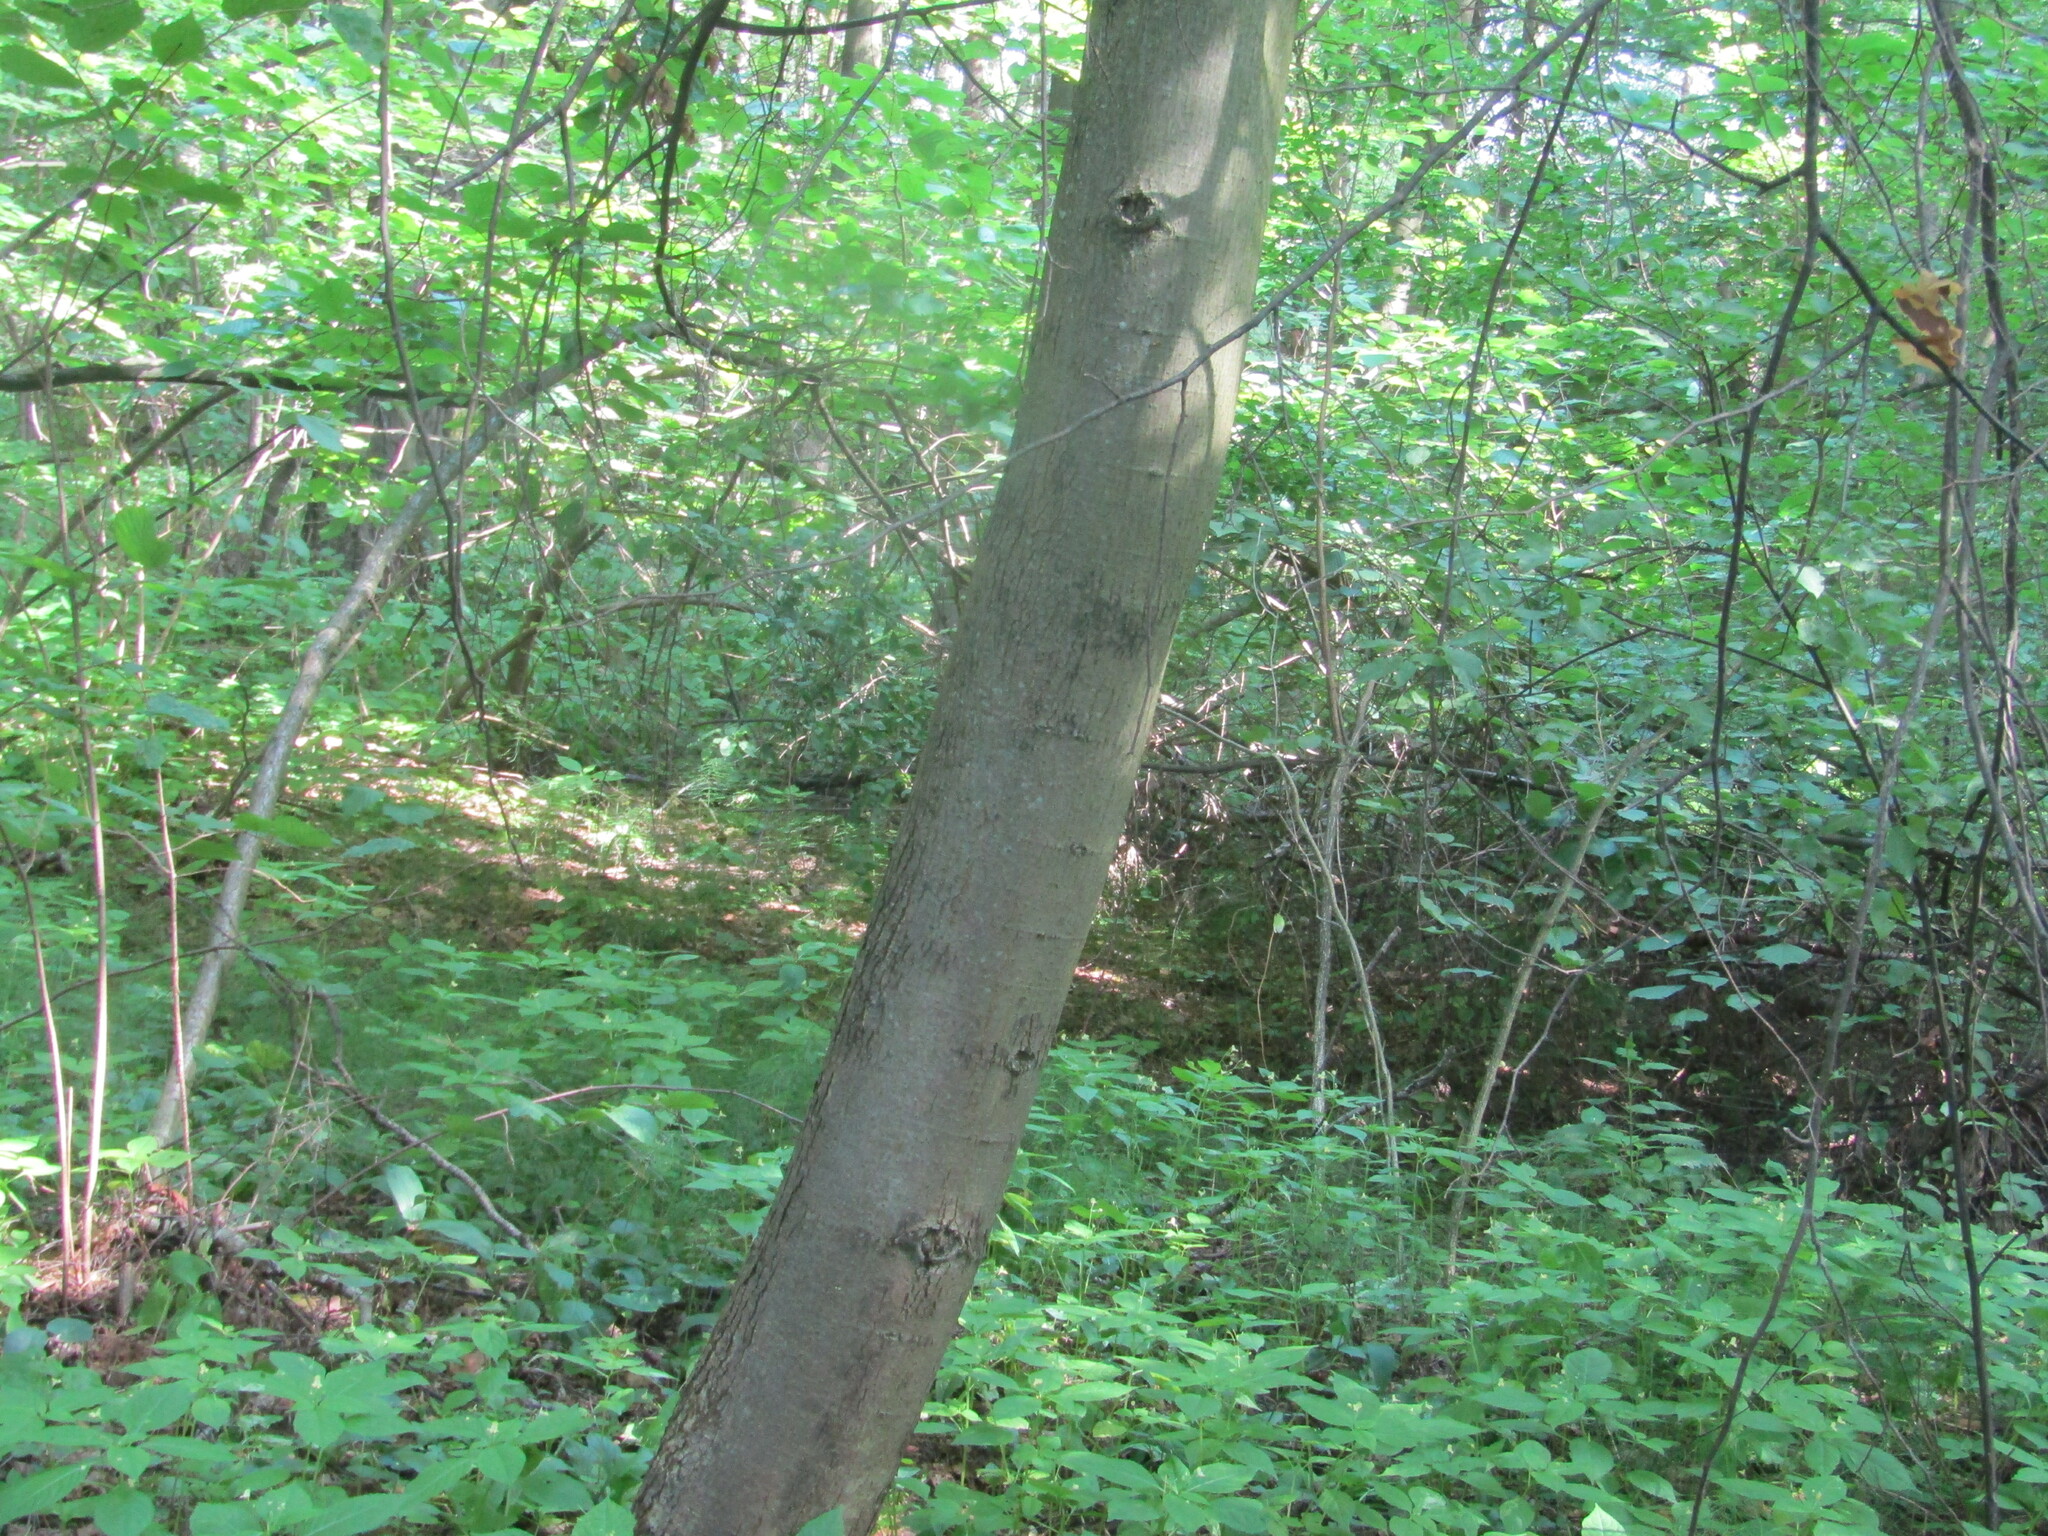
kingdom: Plantae
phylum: Tracheophyta
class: Magnoliopsida
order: Malvales
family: Malvaceae
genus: Tilia
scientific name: Tilia cordata
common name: Small-leaved lime
